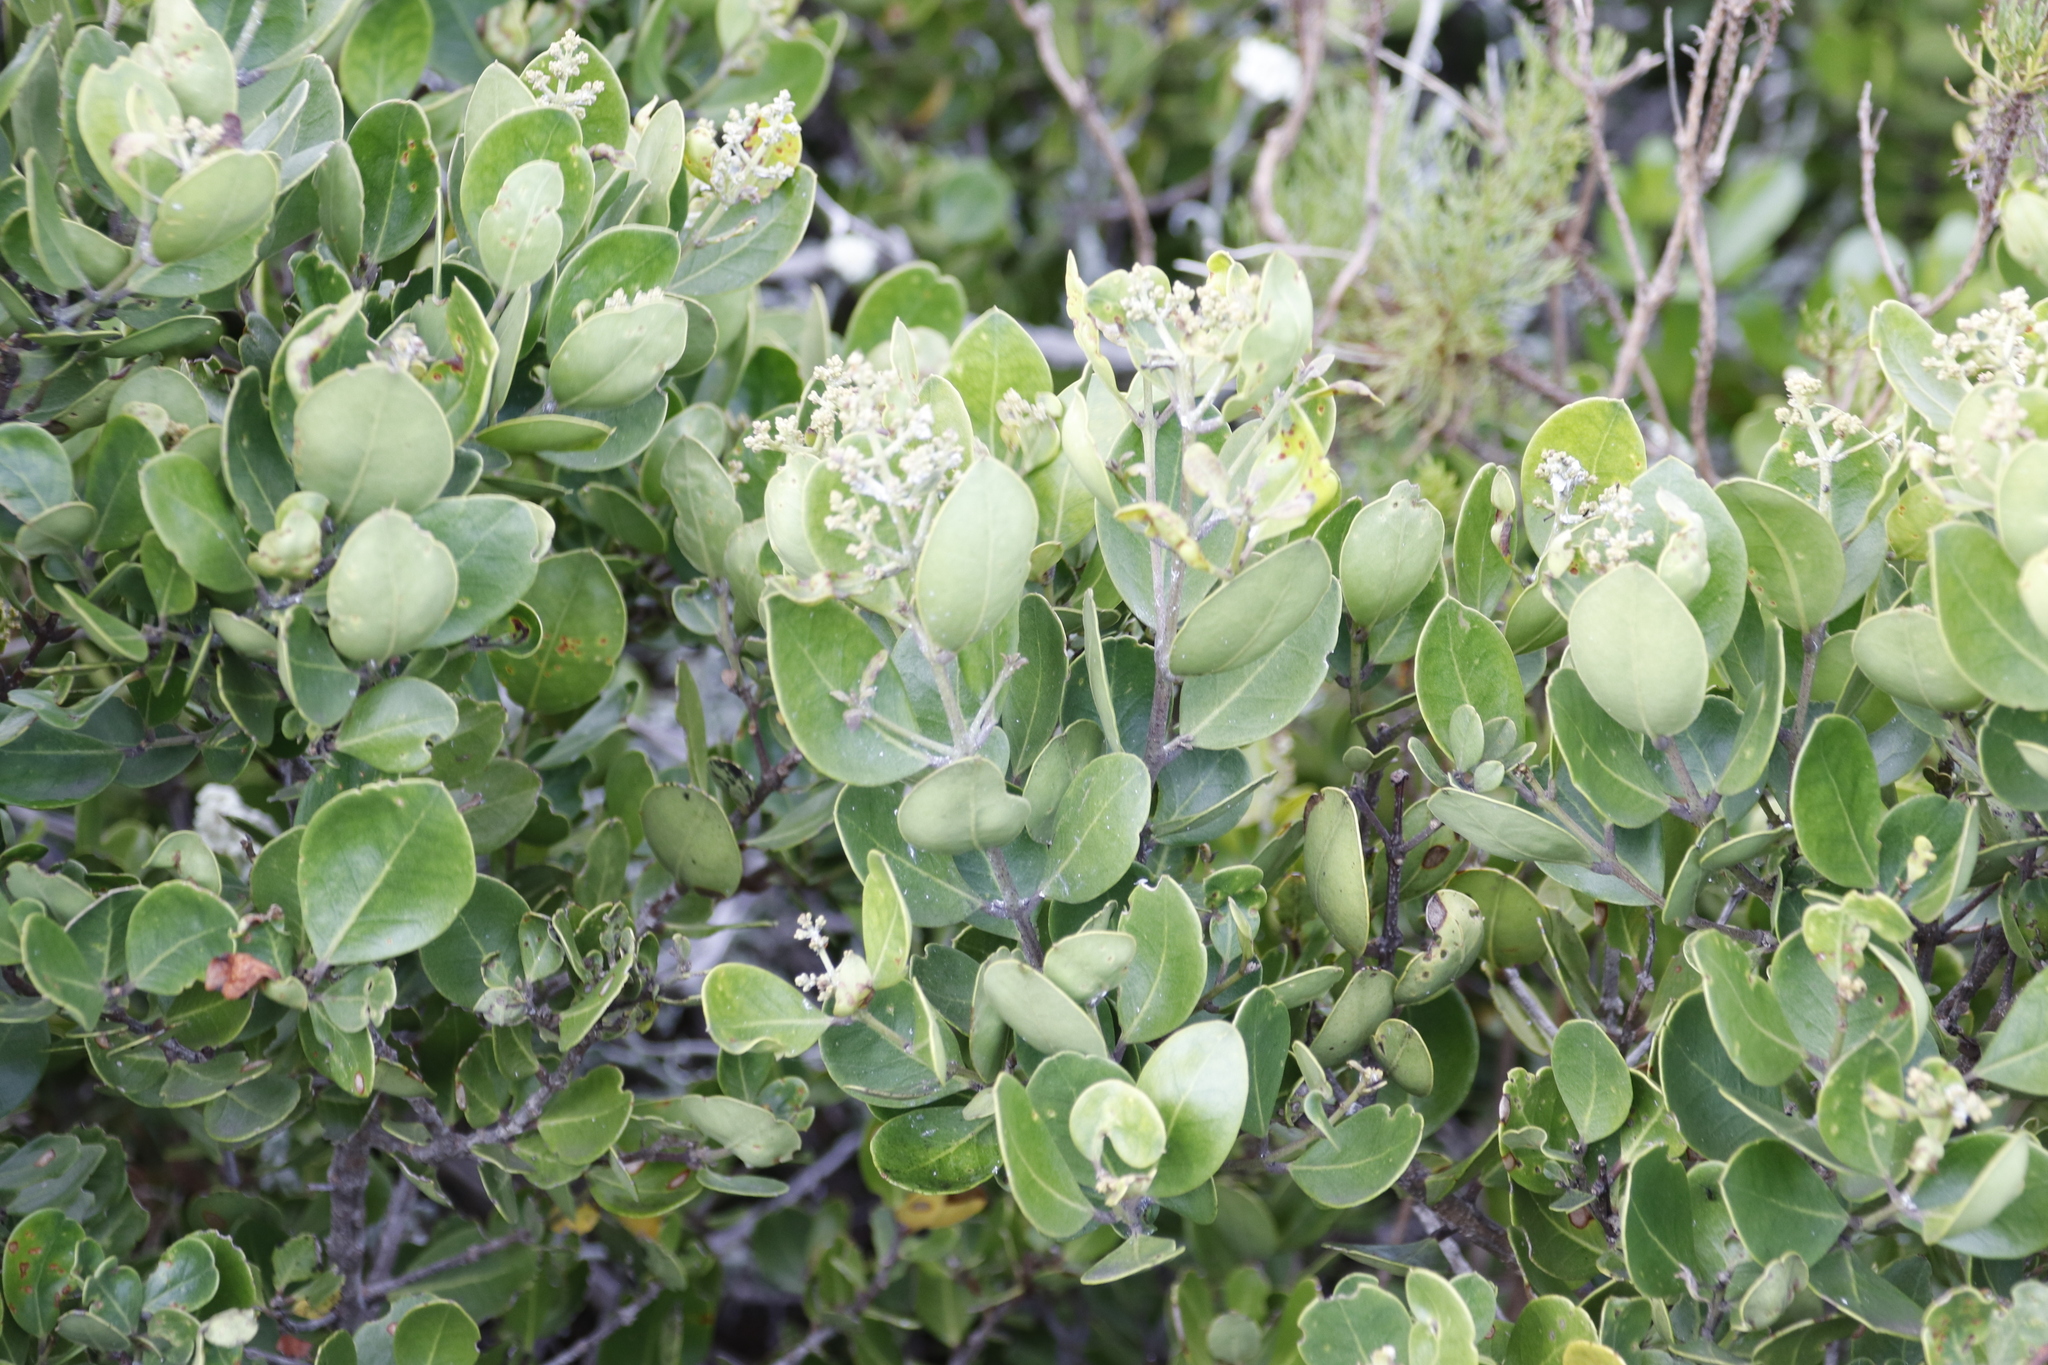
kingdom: Plantae
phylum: Tracheophyta
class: Magnoliopsida
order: Lamiales
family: Oleaceae
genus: Olea
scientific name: Olea capensis
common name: Black ironwood
